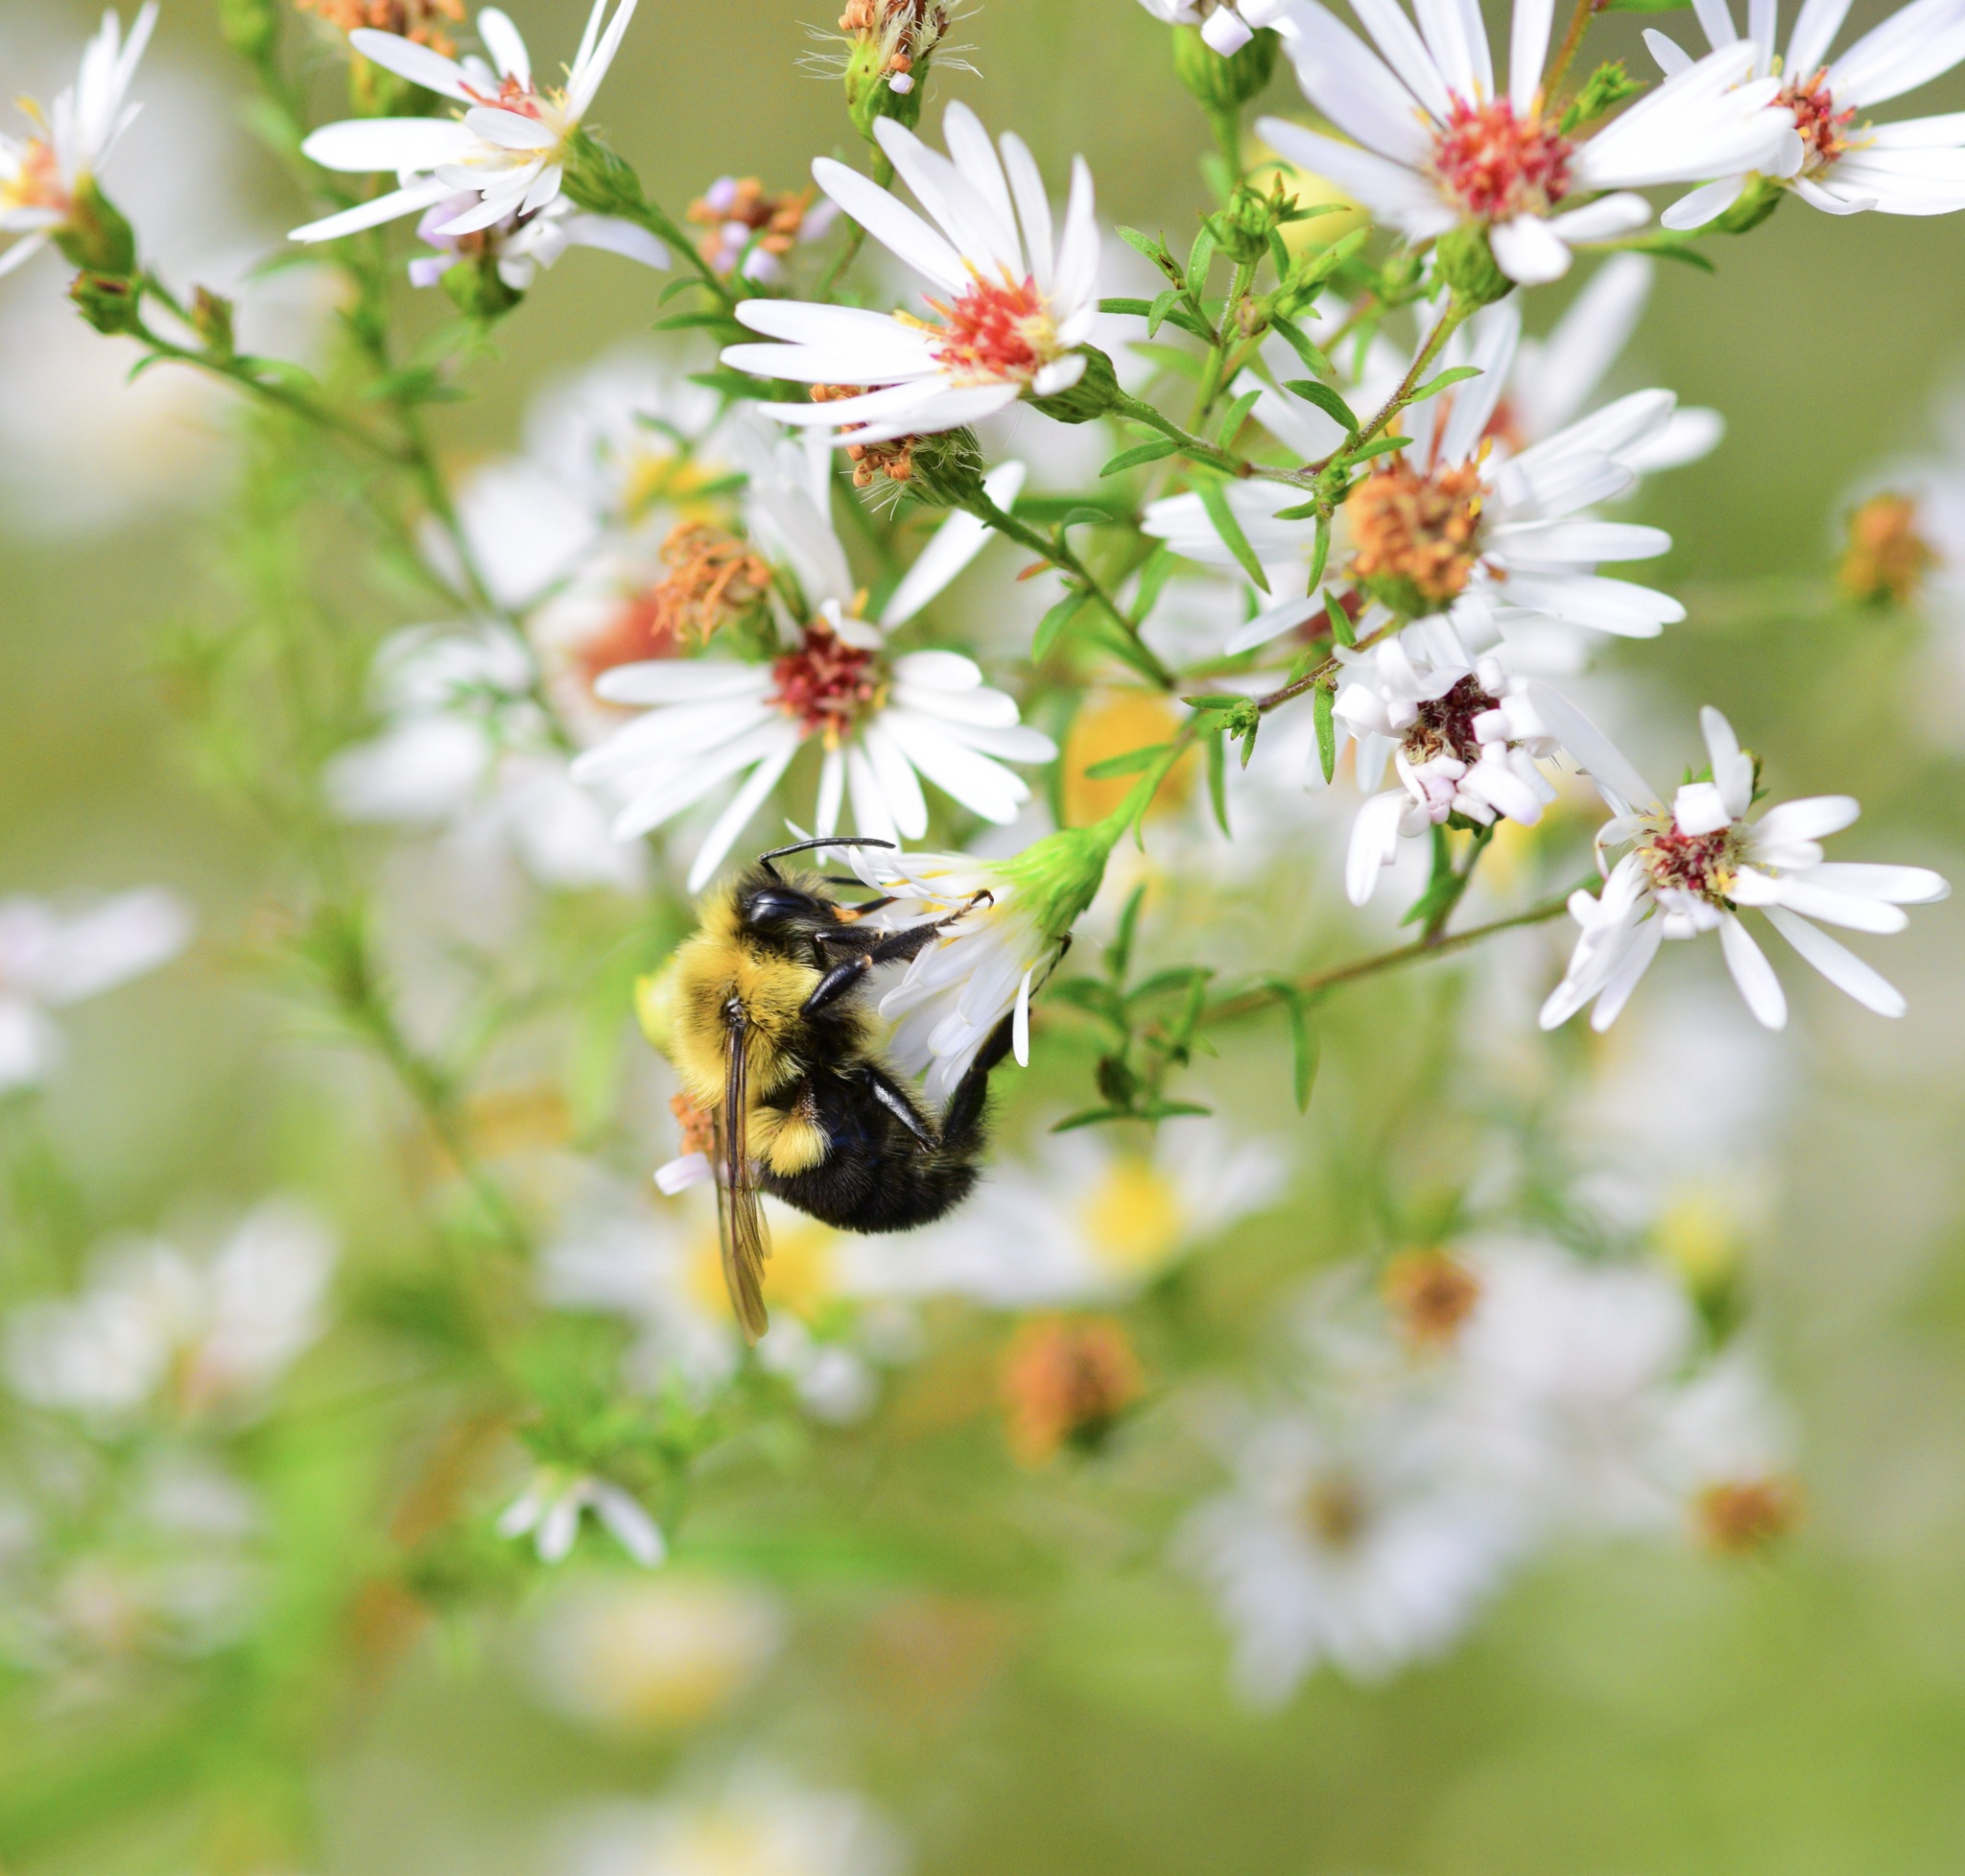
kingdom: Animalia
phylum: Arthropoda
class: Insecta
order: Hymenoptera
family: Apidae
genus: Bombus
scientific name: Bombus impatiens
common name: Common eastern bumble bee
